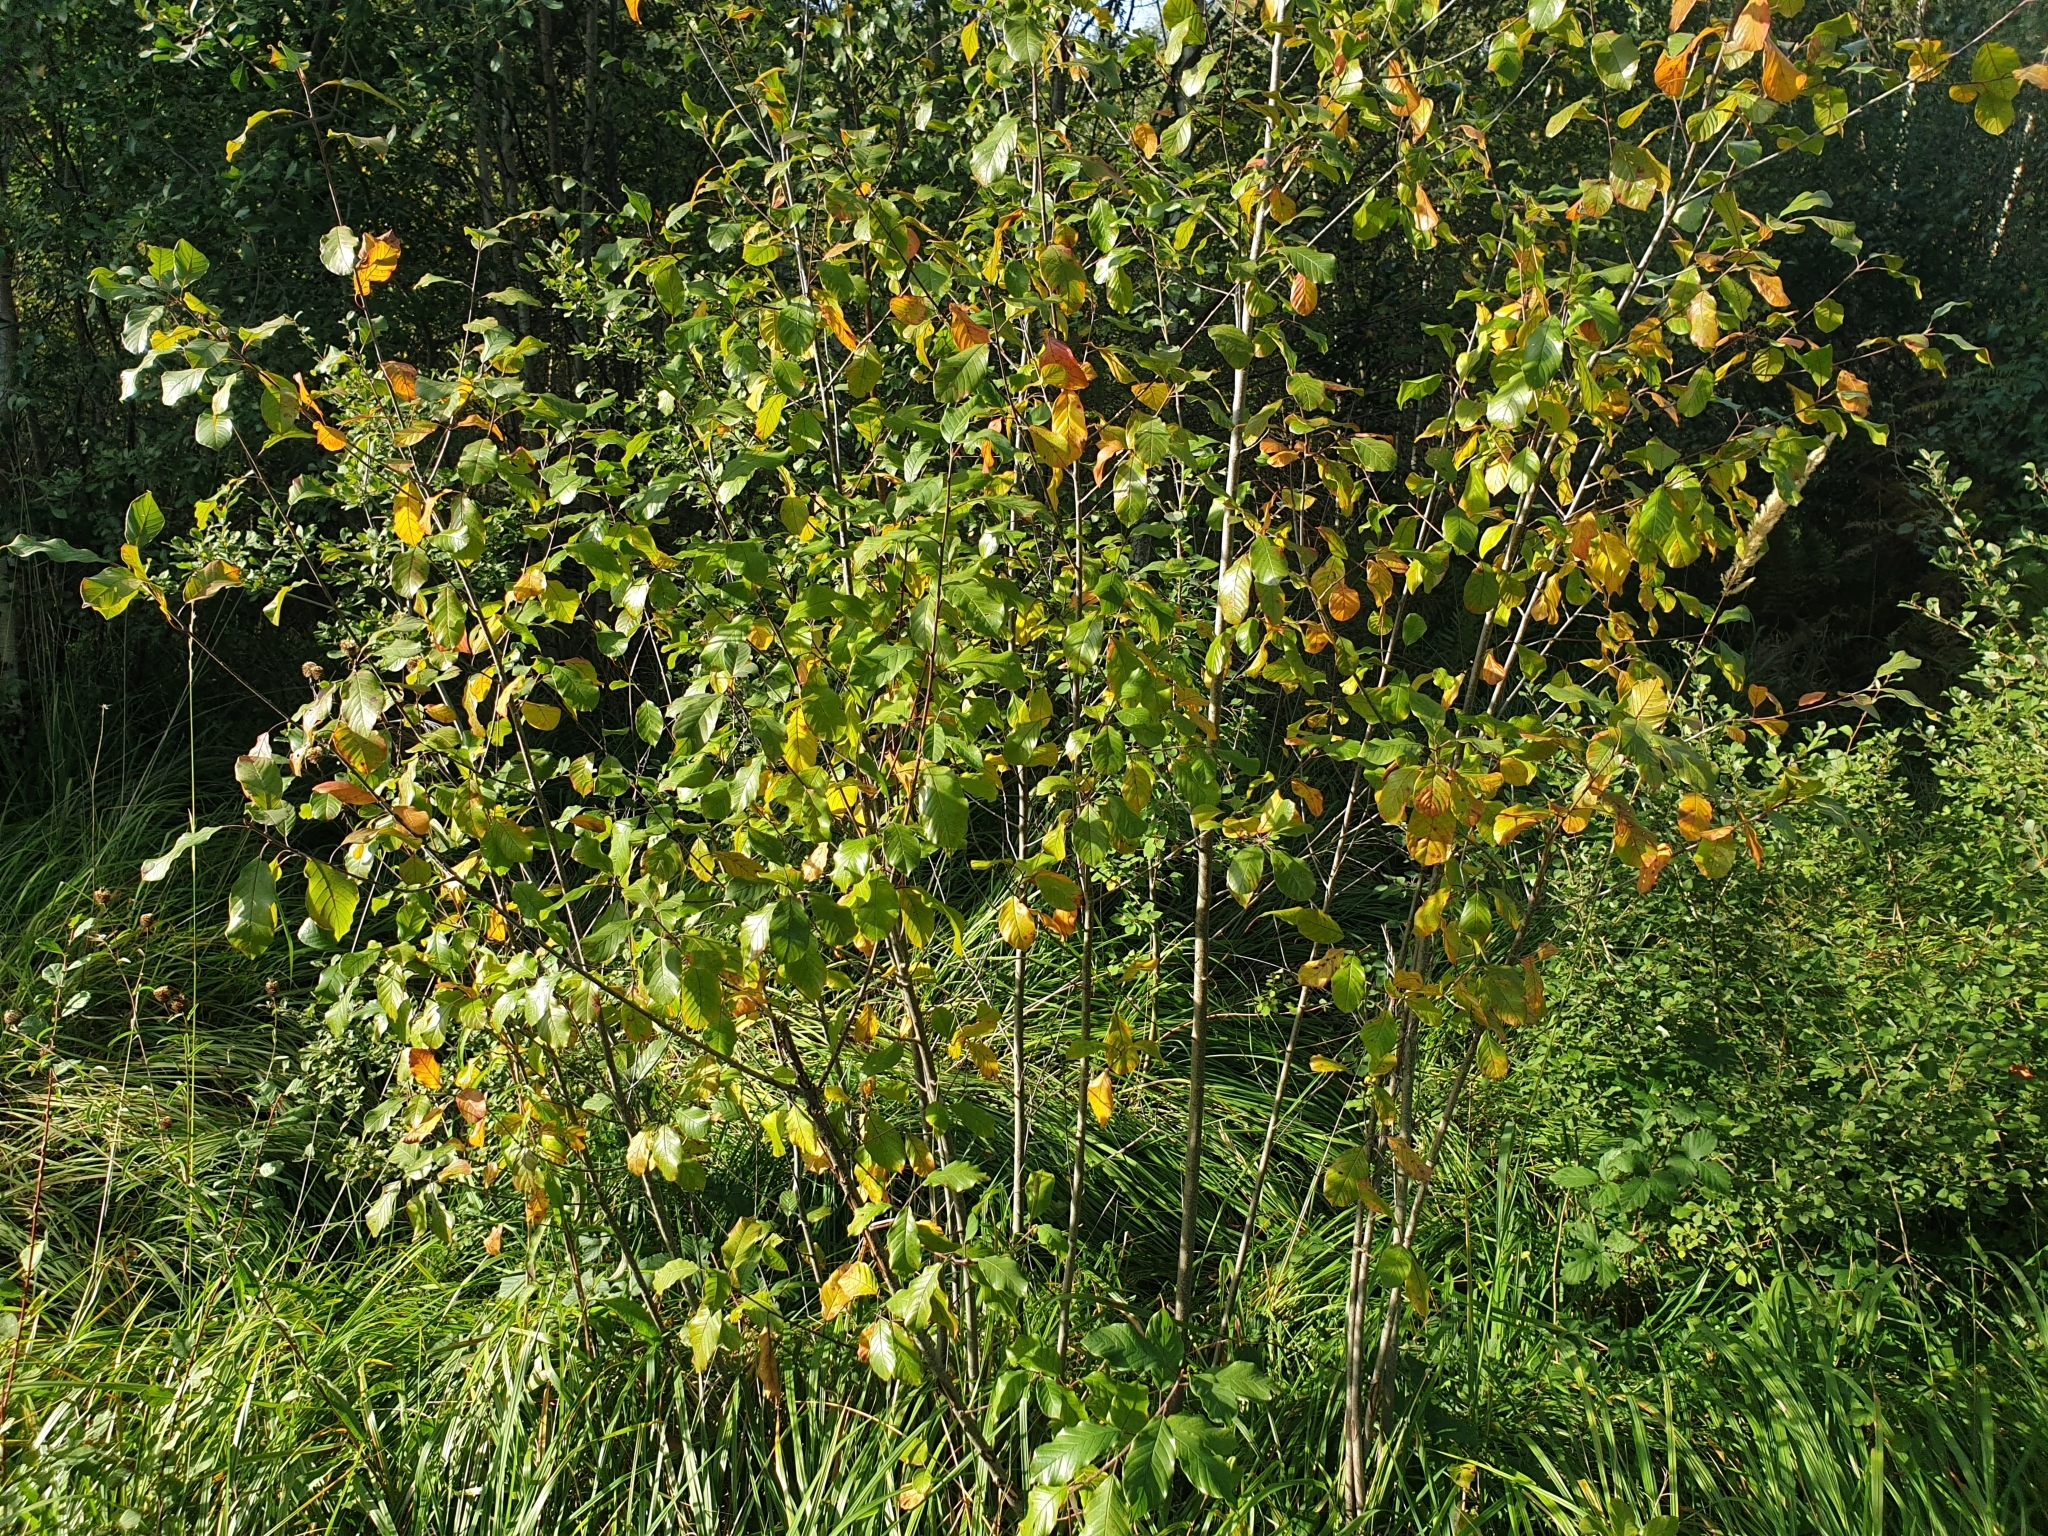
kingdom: Plantae
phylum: Tracheophyta
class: Magnoliopsida
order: Rosales
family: Rhamnaceae
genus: Frangula
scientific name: Frangula alnus
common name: Alder buckthorn
